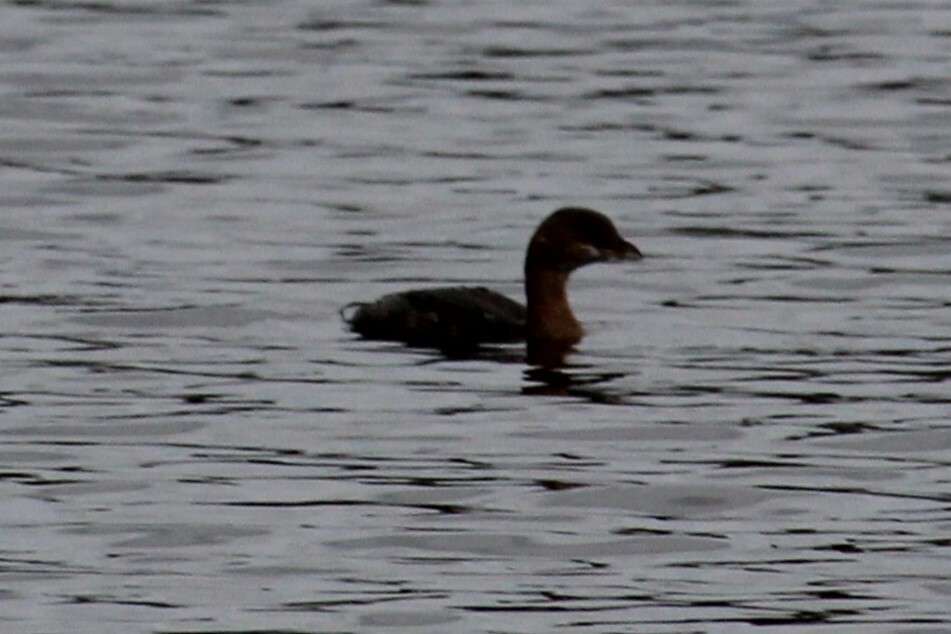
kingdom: Animalia
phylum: Chordata
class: Aves
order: Podicipediformes
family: Podicipedidae
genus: Podilymbus
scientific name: Podilymbus podiceps
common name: Pied-billed grebe
